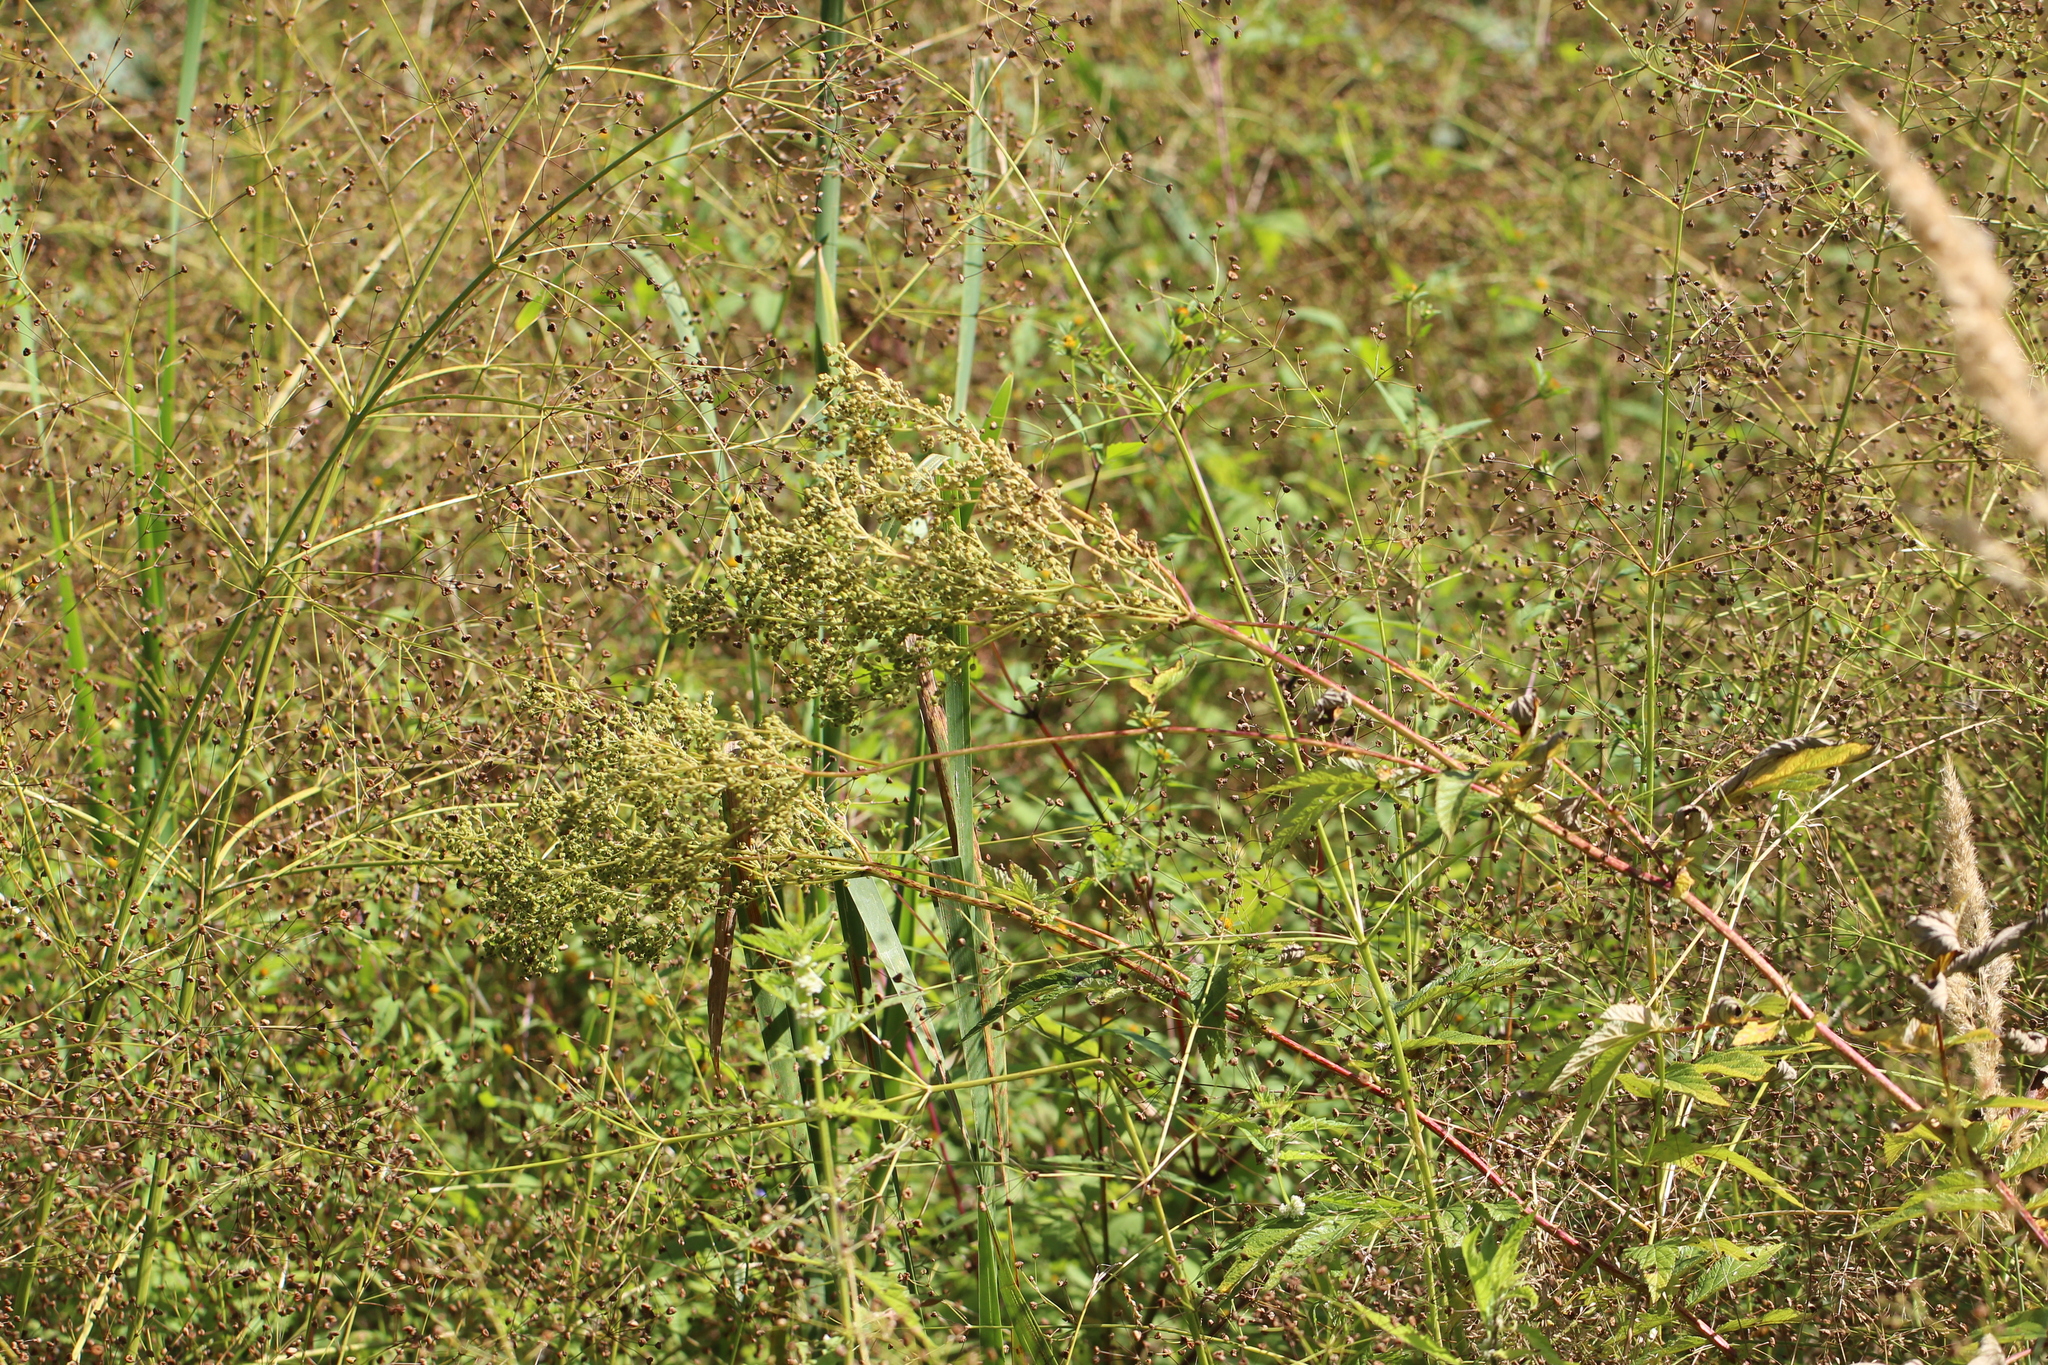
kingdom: Plantae
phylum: Tracheophyta
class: Magnoliopsida
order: Rosales
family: Rosaceae
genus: Filipendula
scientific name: Filipendula ulmaria
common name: Meadowsweet
